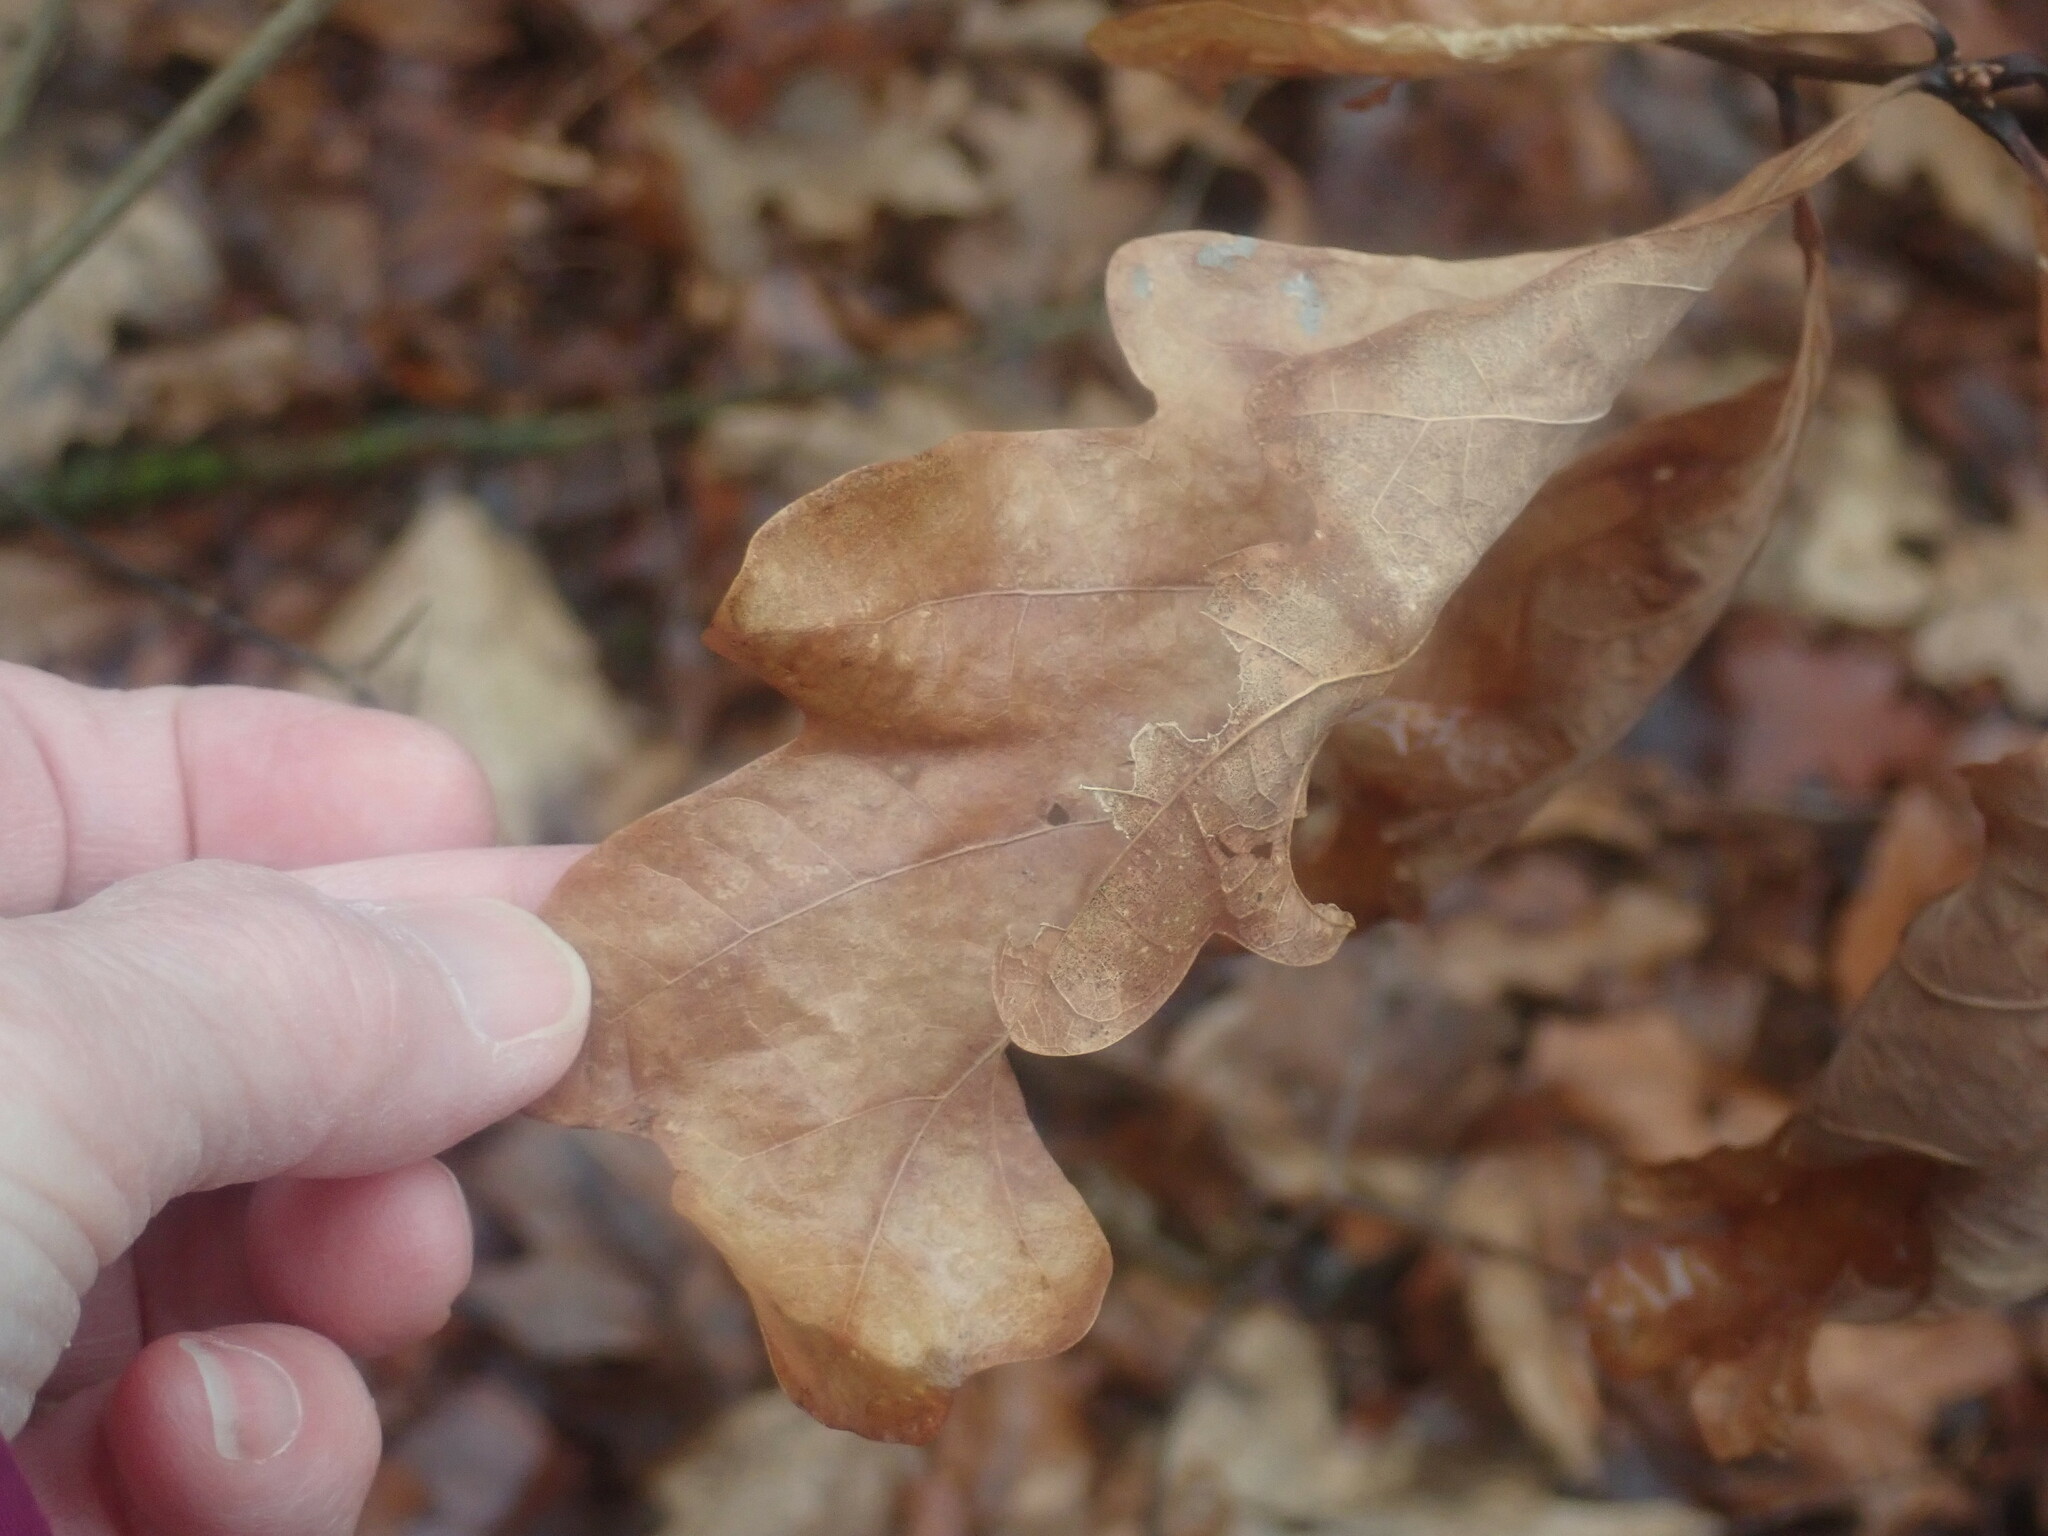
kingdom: Plantae
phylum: Tracheophyta
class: Magnoliopsida
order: Fagales
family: Fagaceae
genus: Quercus
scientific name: Quercus alba
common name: White oak
